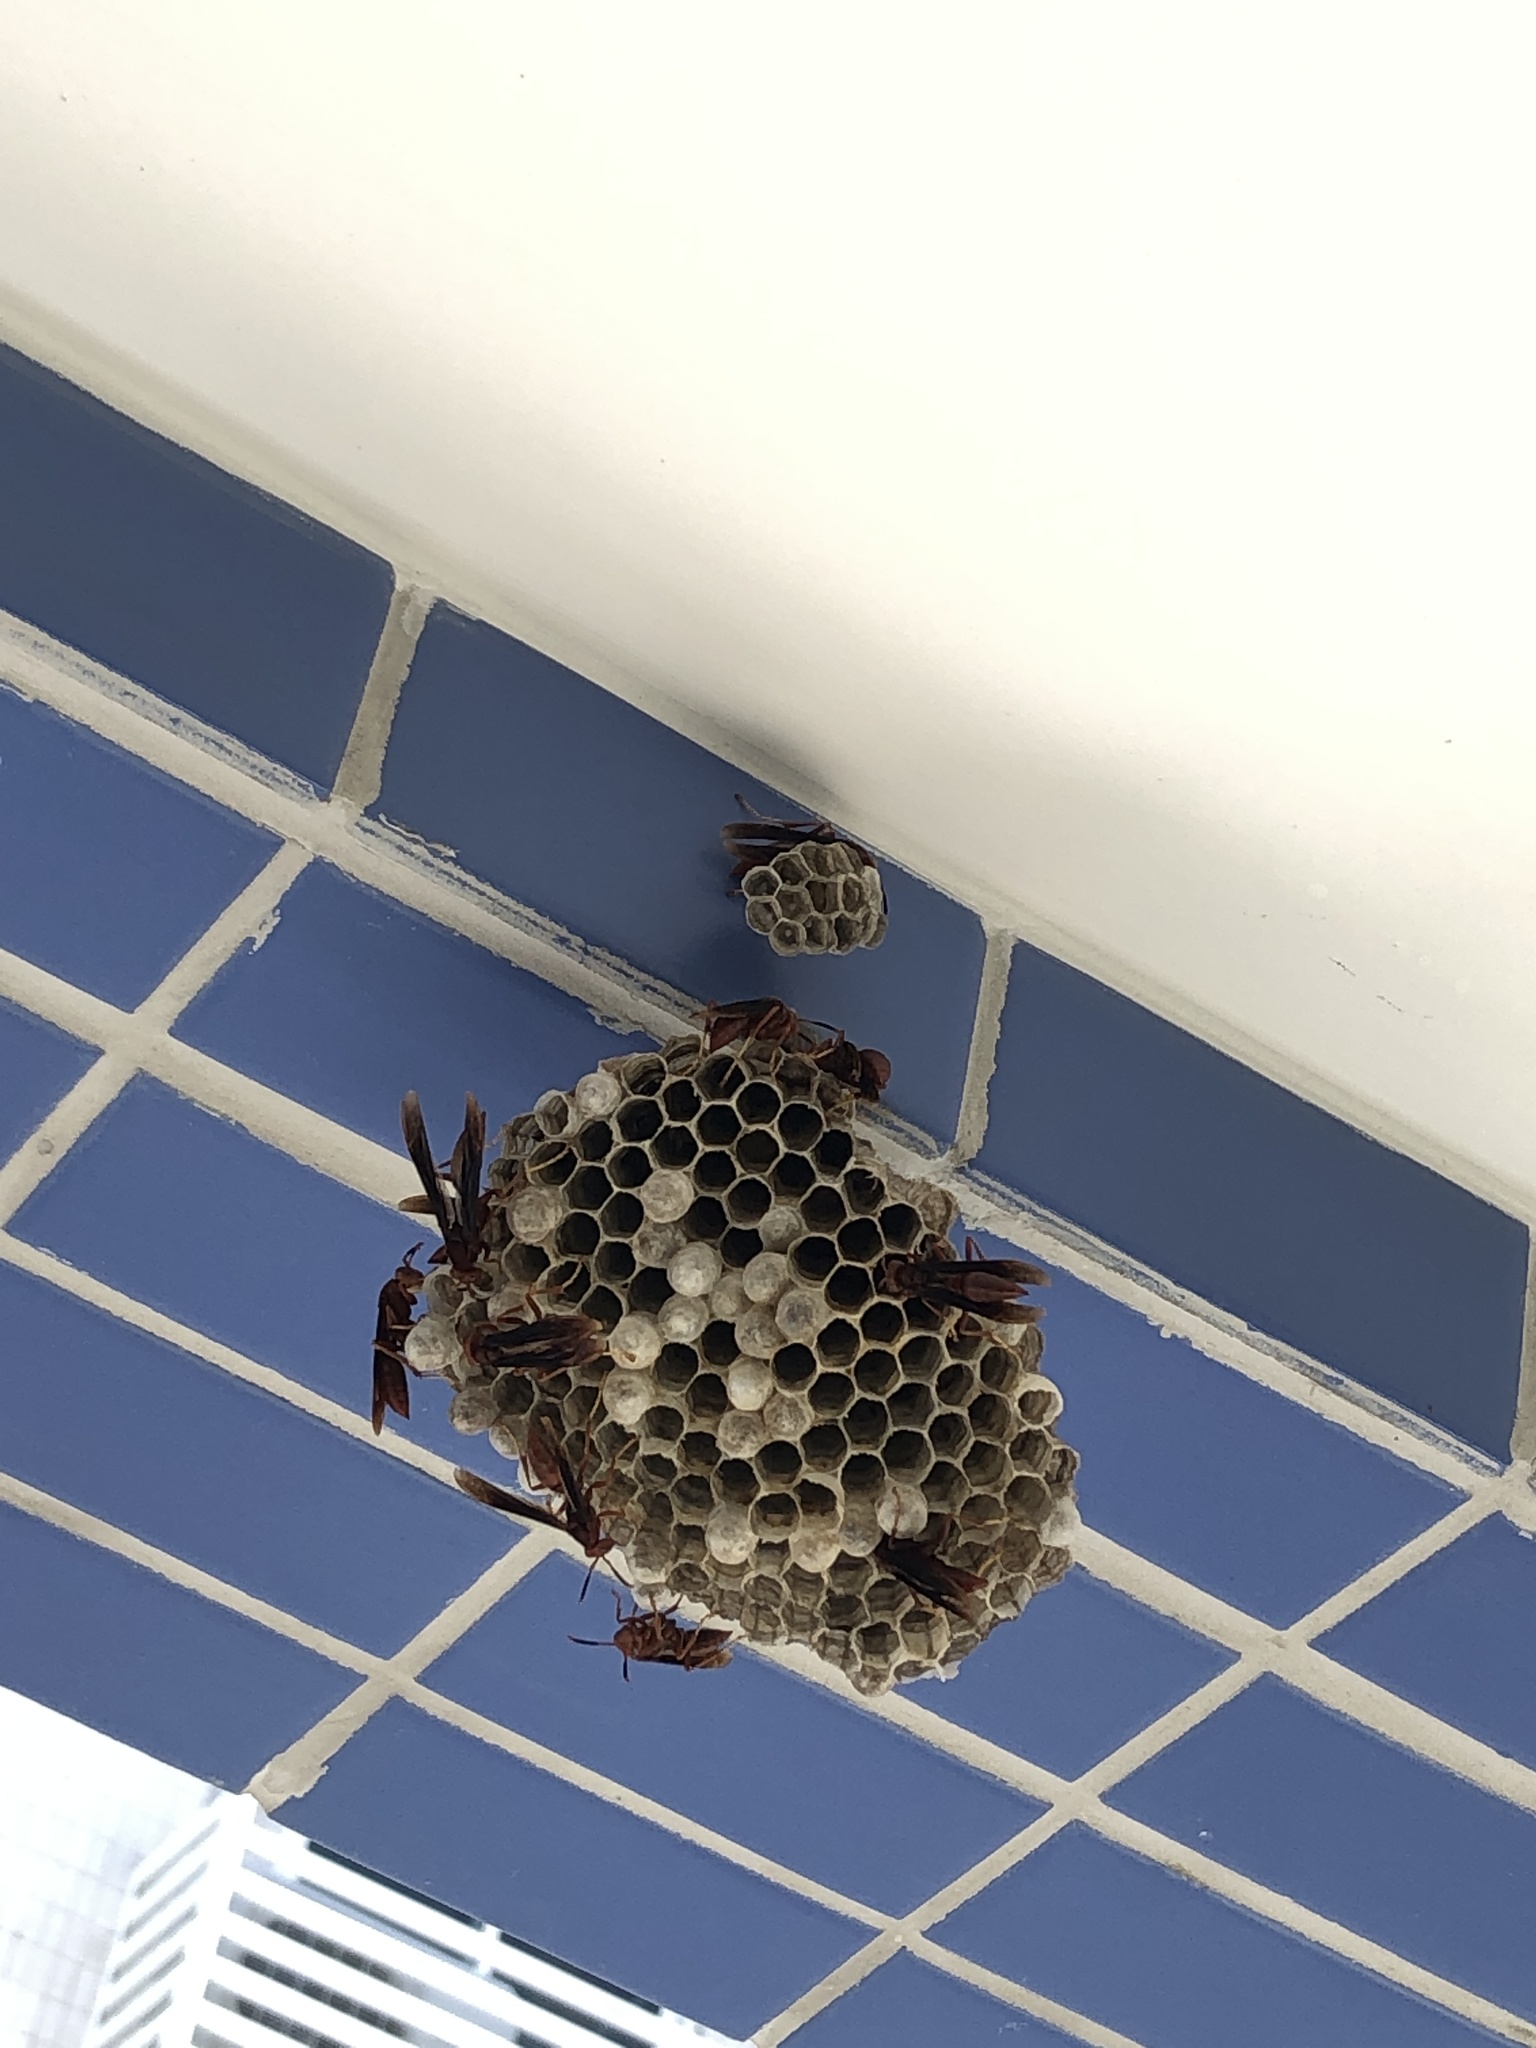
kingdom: Animalia
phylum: Arthropoda
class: Insecta
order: Hymenoptera
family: Eumenidae
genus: Polistes
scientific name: Polistes canadensis
